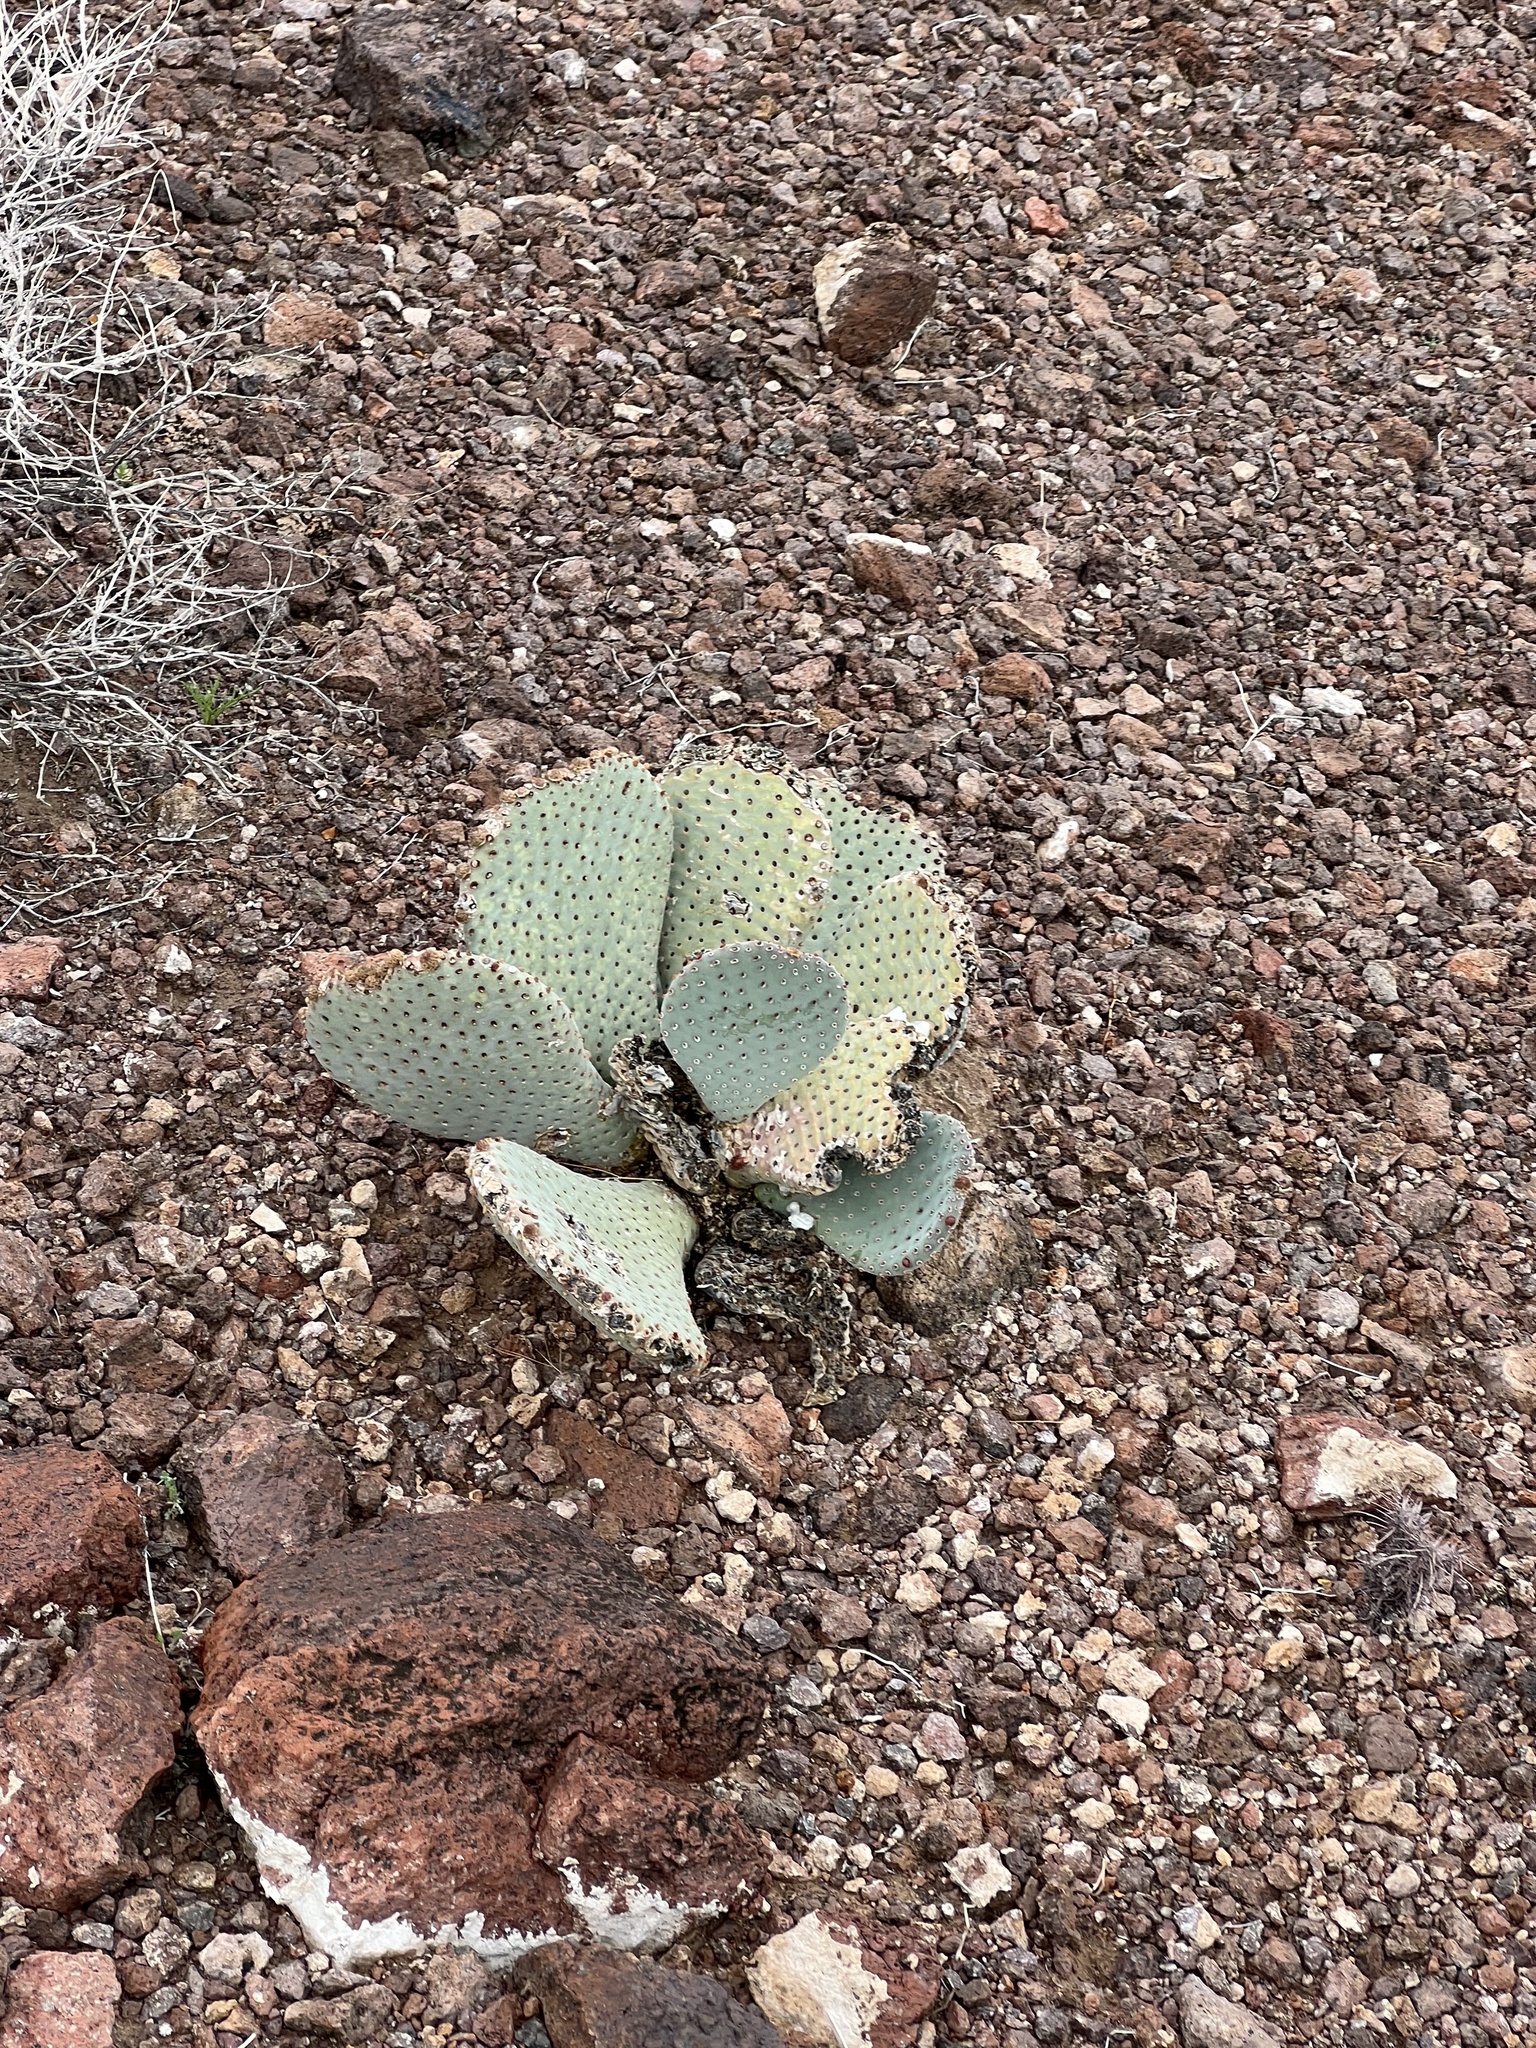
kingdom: Plantae
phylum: Tracheophyta
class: Magnoliopsida
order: Caryophyllales
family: Cactaceae
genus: Opuntia
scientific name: Opuntia basilaris
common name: Beavertail prickly-pear
